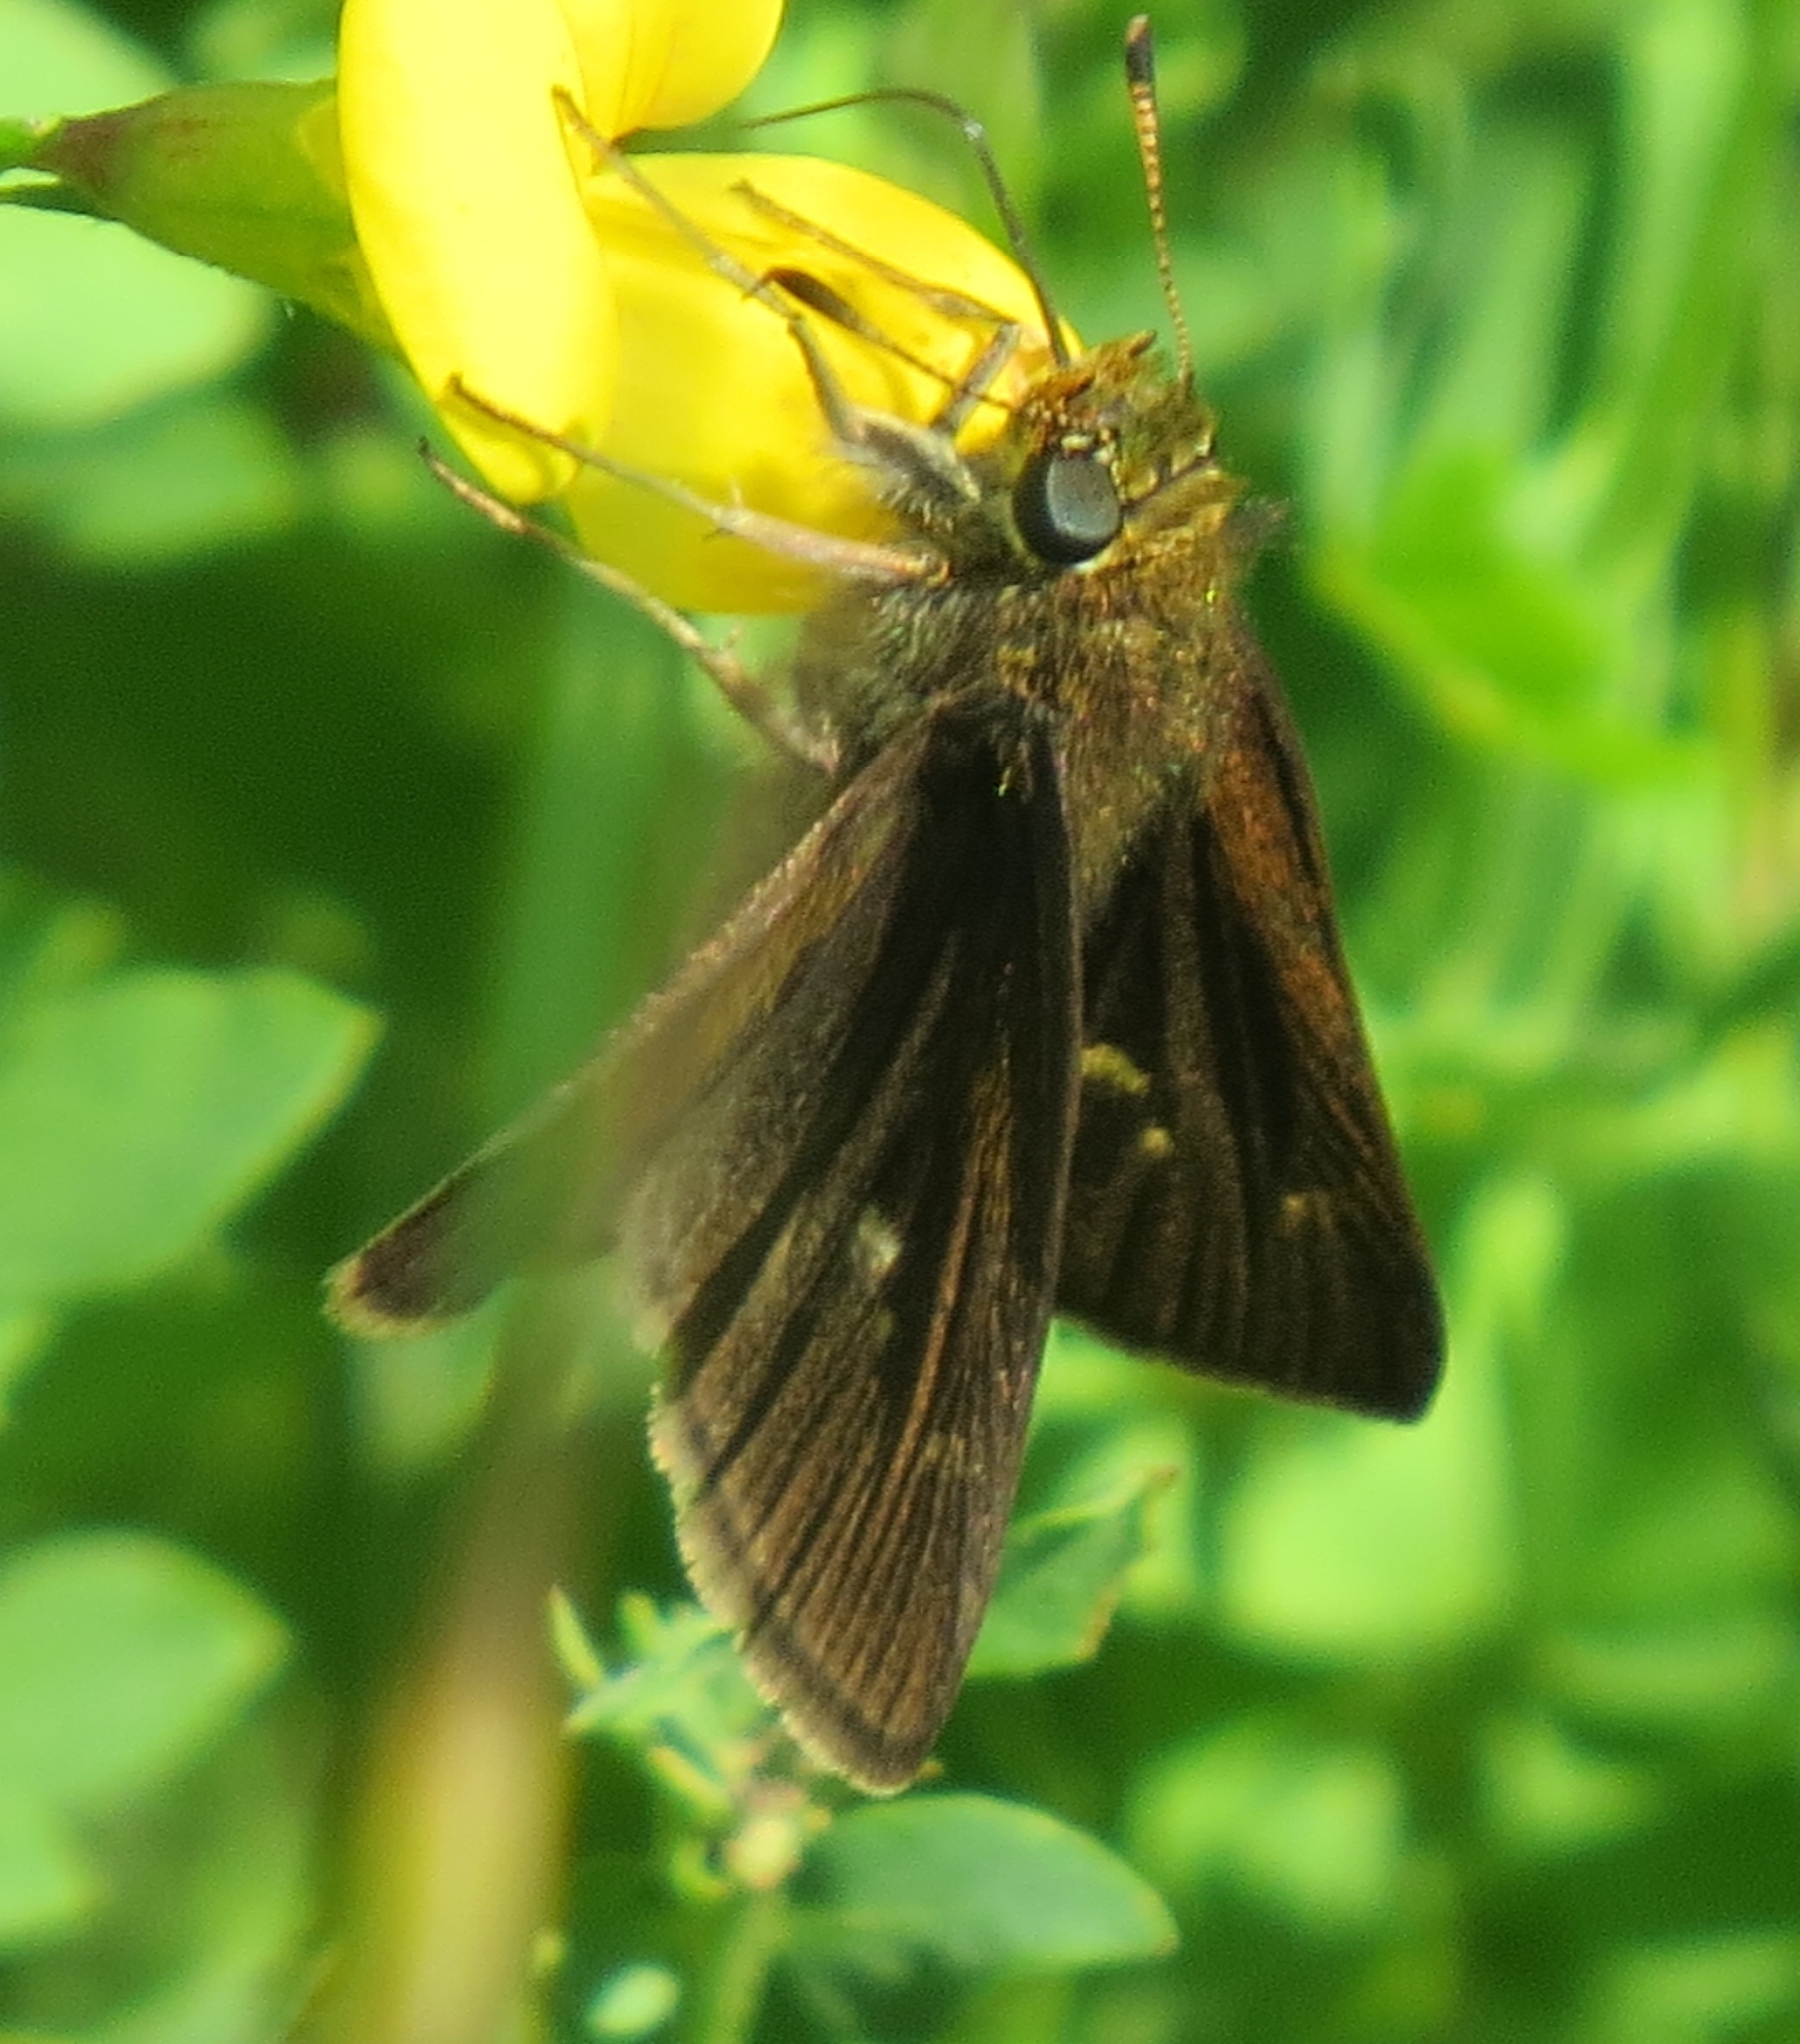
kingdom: Animalia
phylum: Arthropoda
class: Insecta
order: Lepidoptera
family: Hesperiidae
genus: Euphyes
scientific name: Euphyes vestris
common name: Dun skipper
